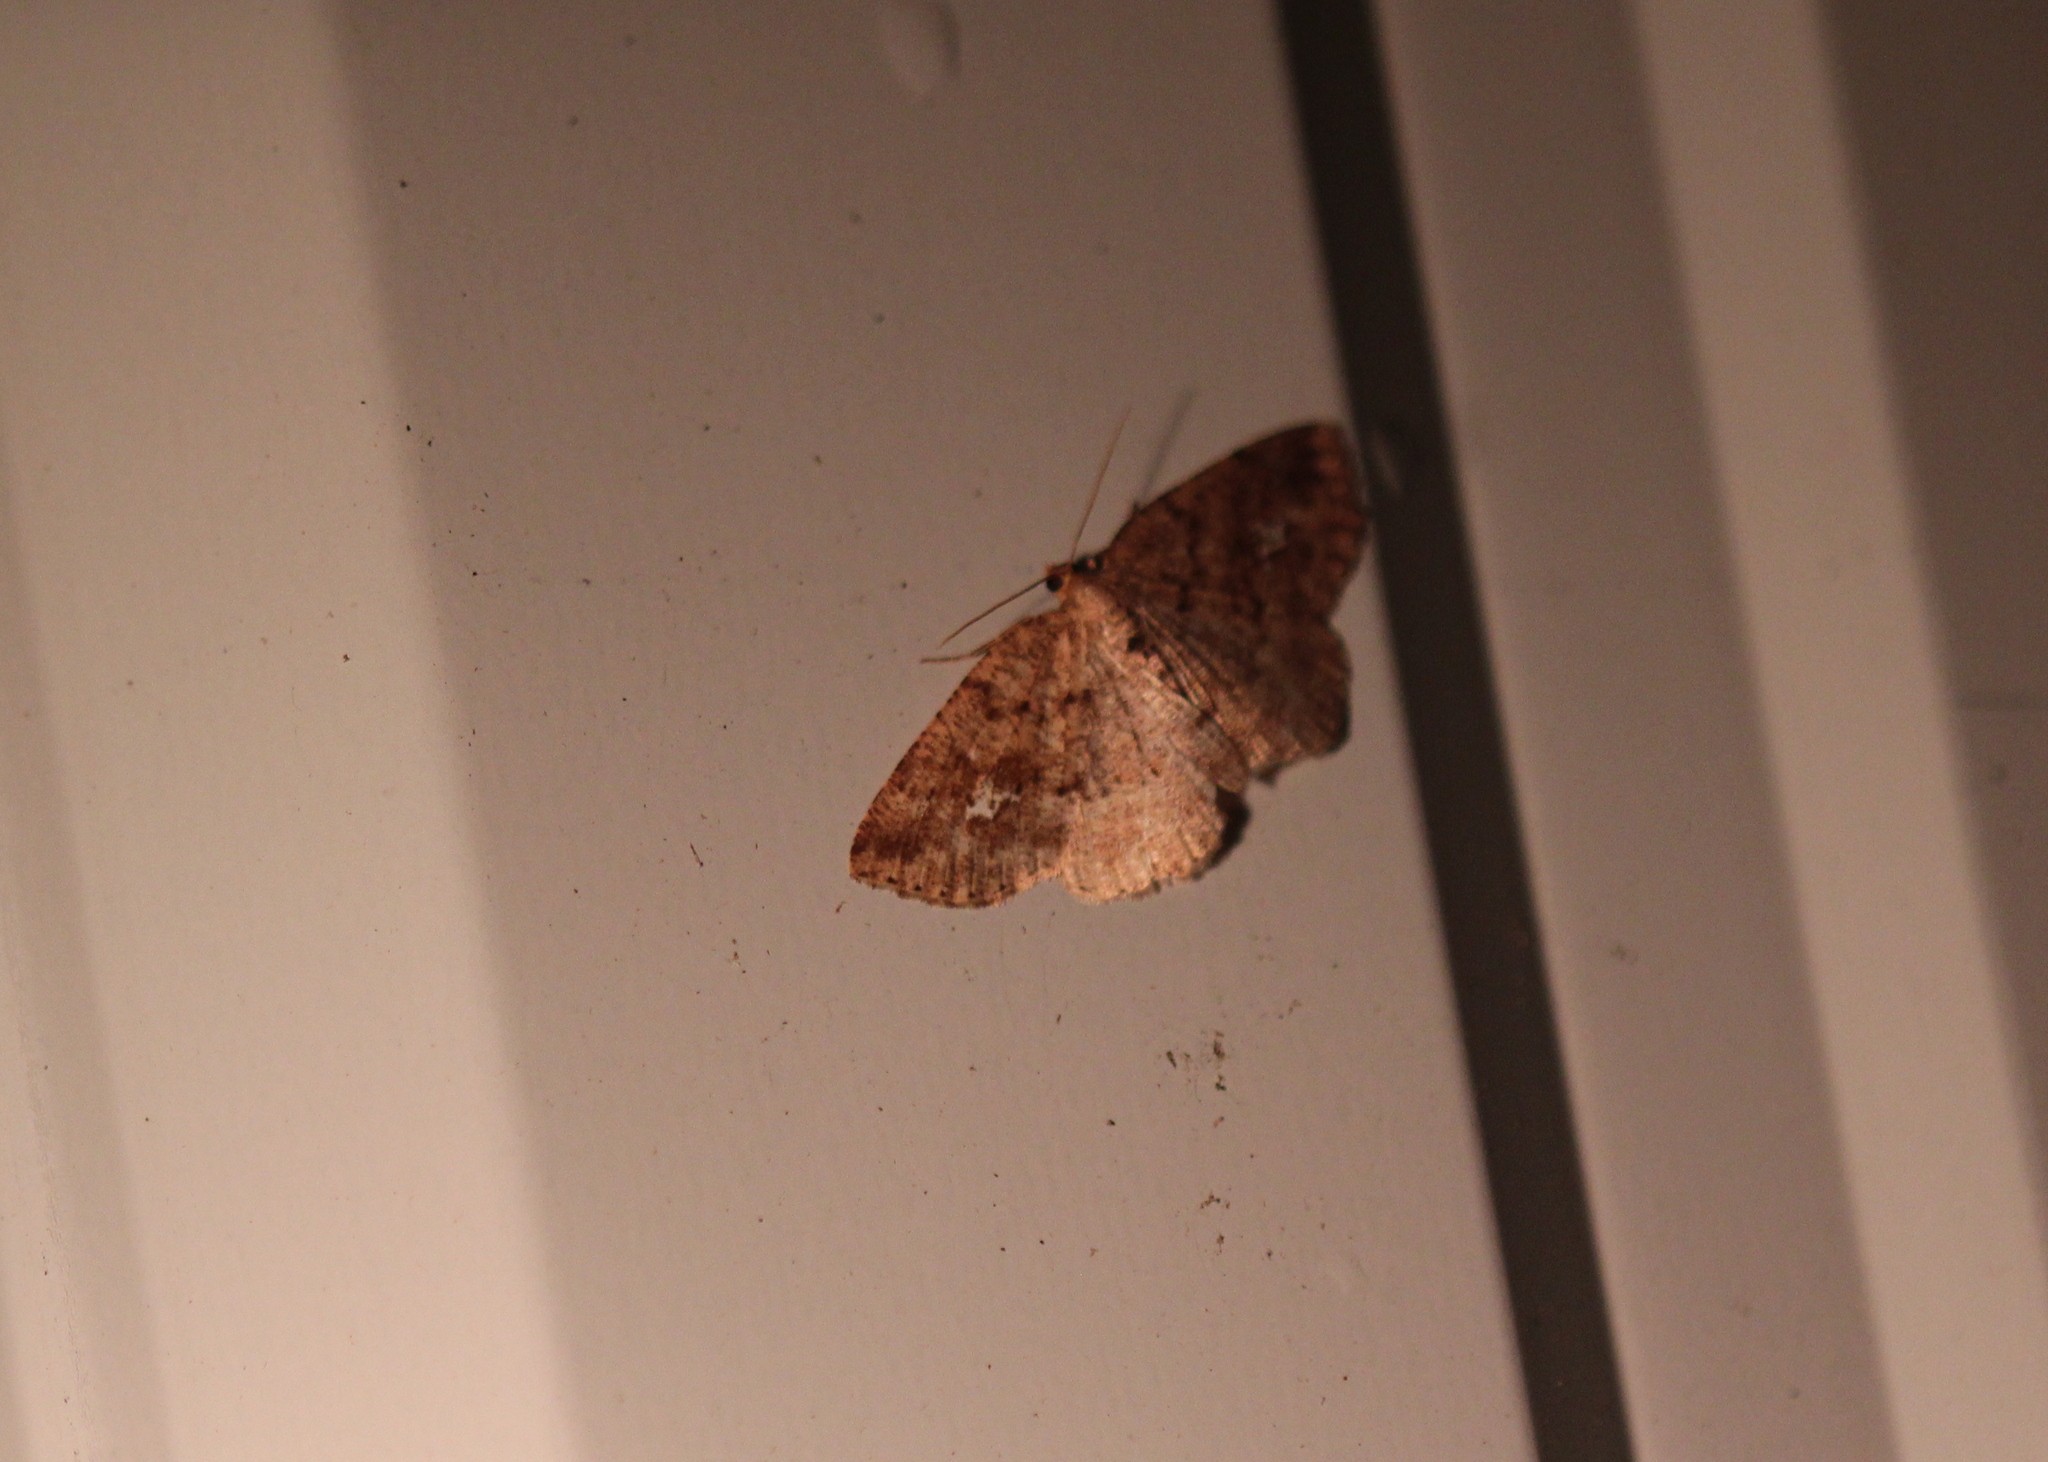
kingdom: Animalia
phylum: Arthropoda
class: Insecta
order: Lepidoptera
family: Geometridae
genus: Homochlodes
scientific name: Homochlodes fritillaria
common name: Pale homochlodes
